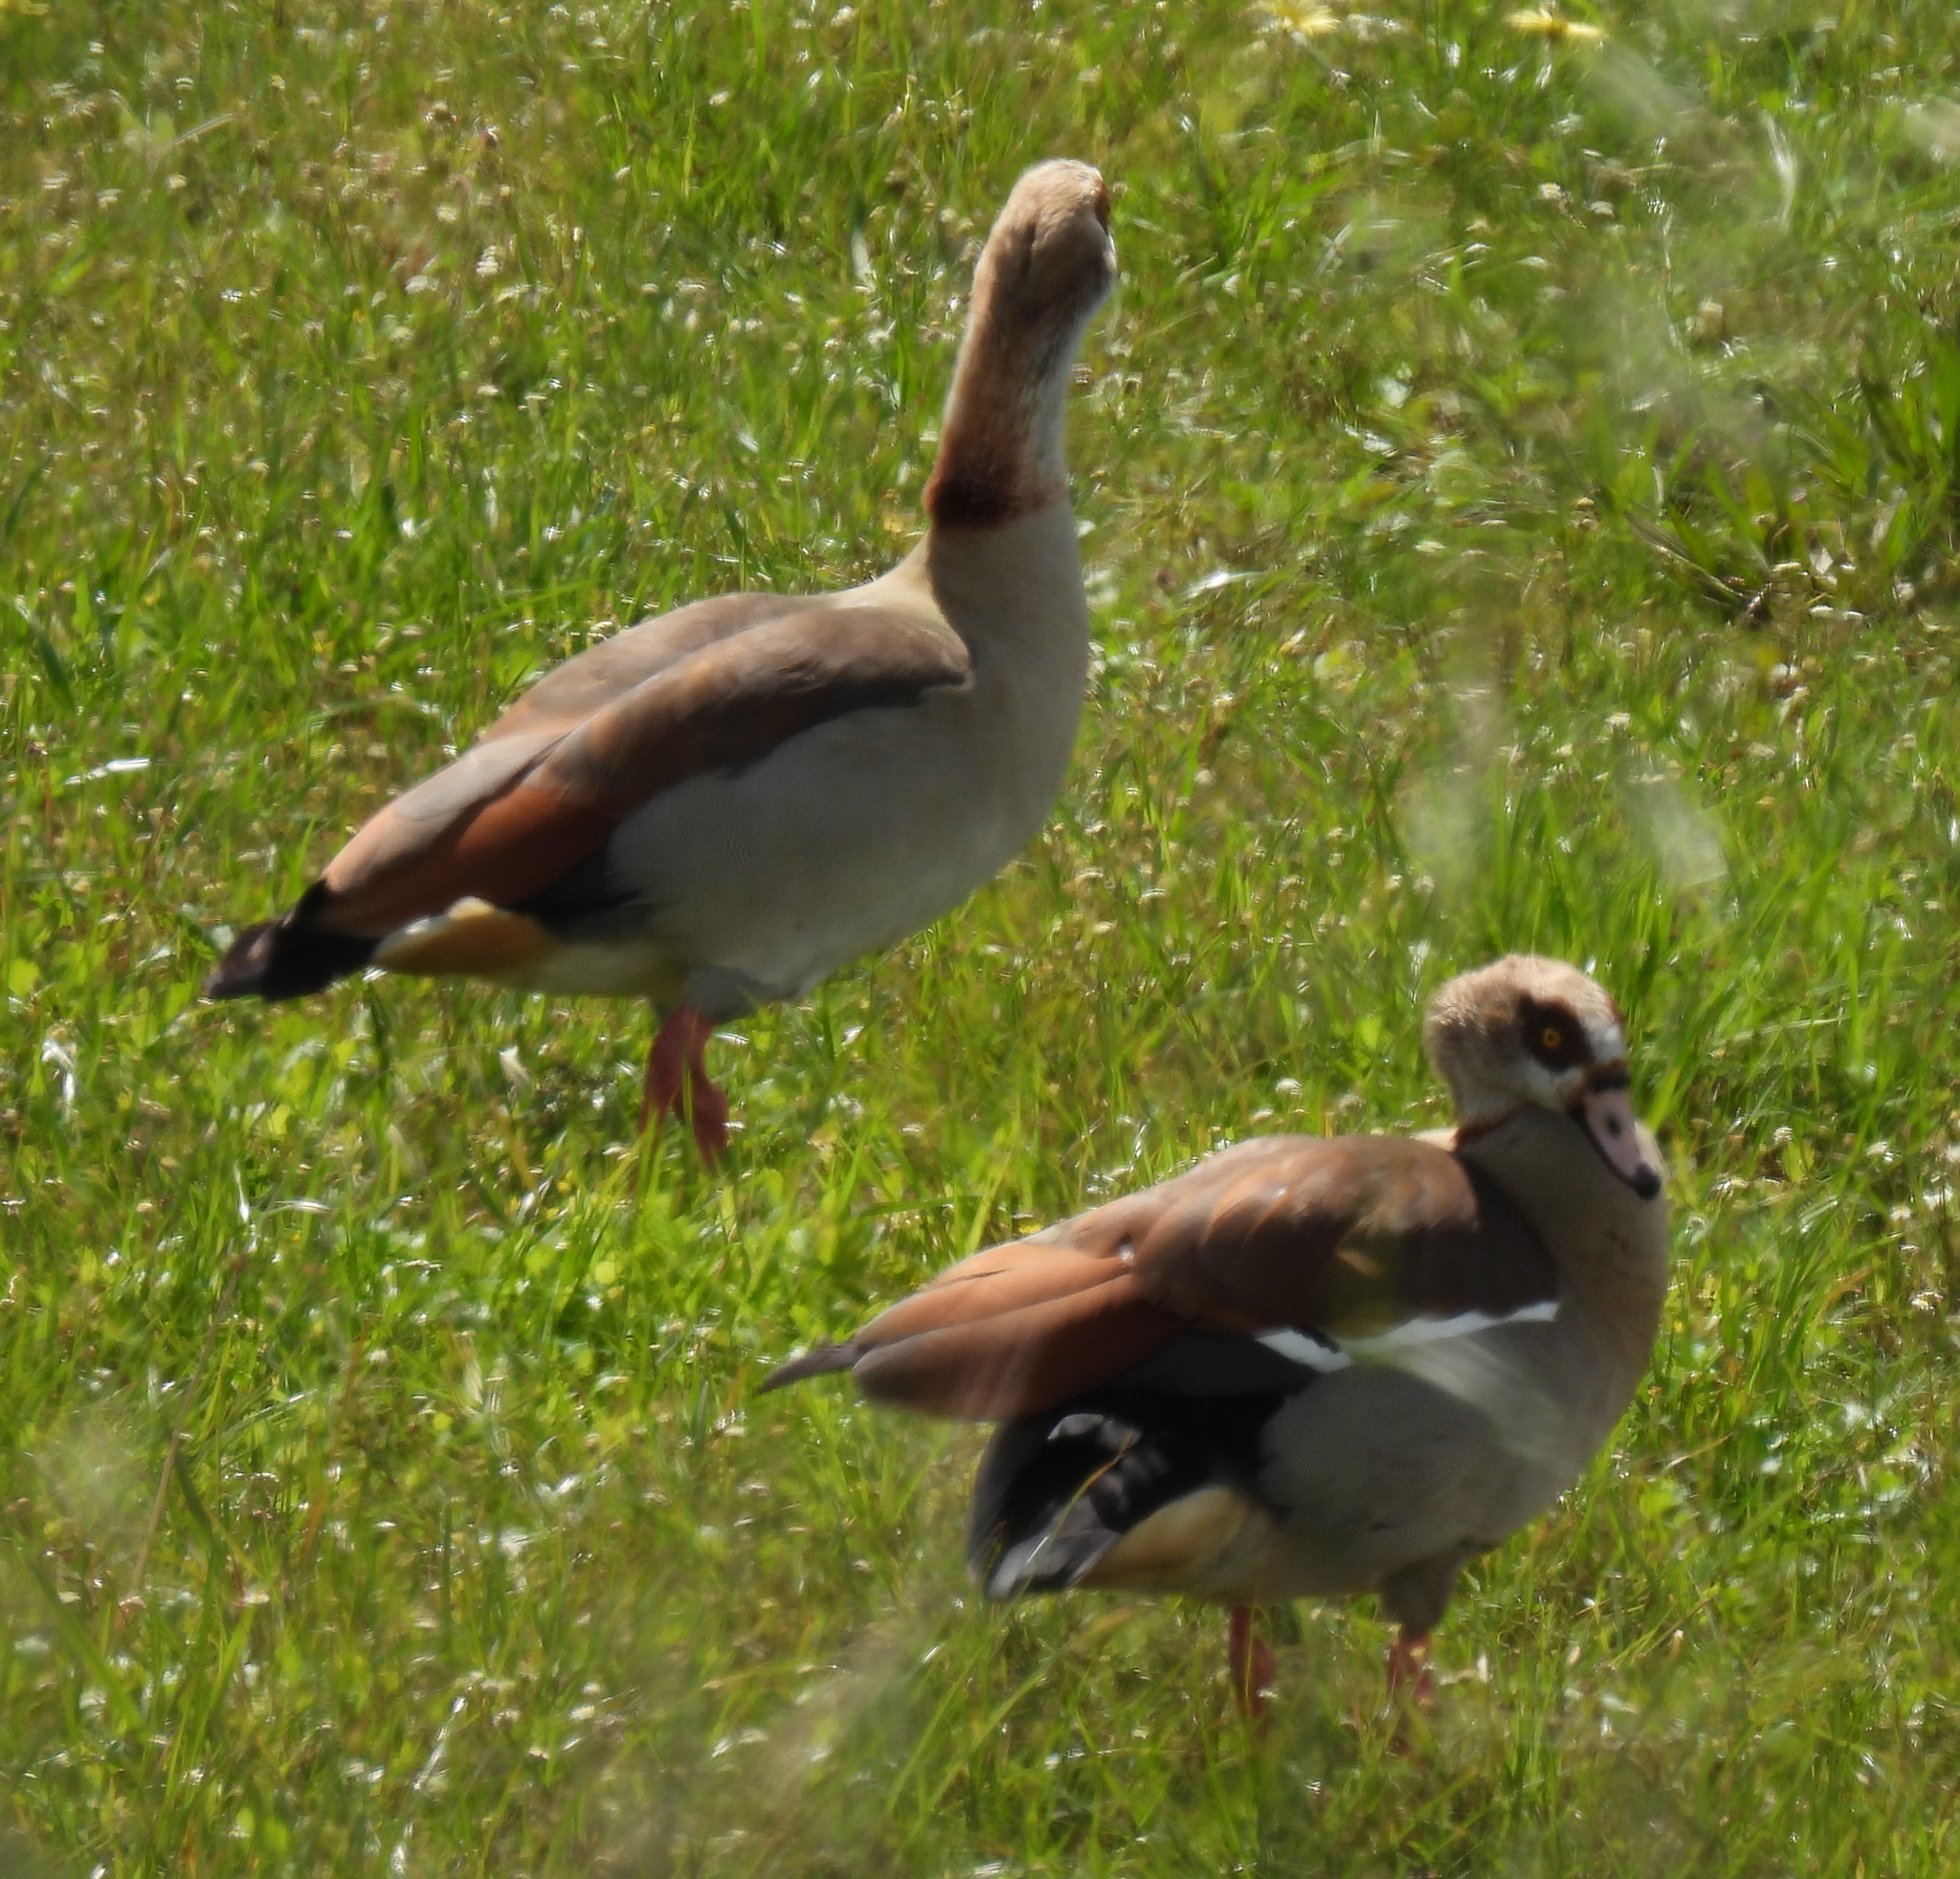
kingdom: Animalia
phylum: Chordata
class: Aves
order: Anseriformes
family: Anatidae
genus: Alopochen
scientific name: Alopochen aegyptiaca
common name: Egyptian goose
